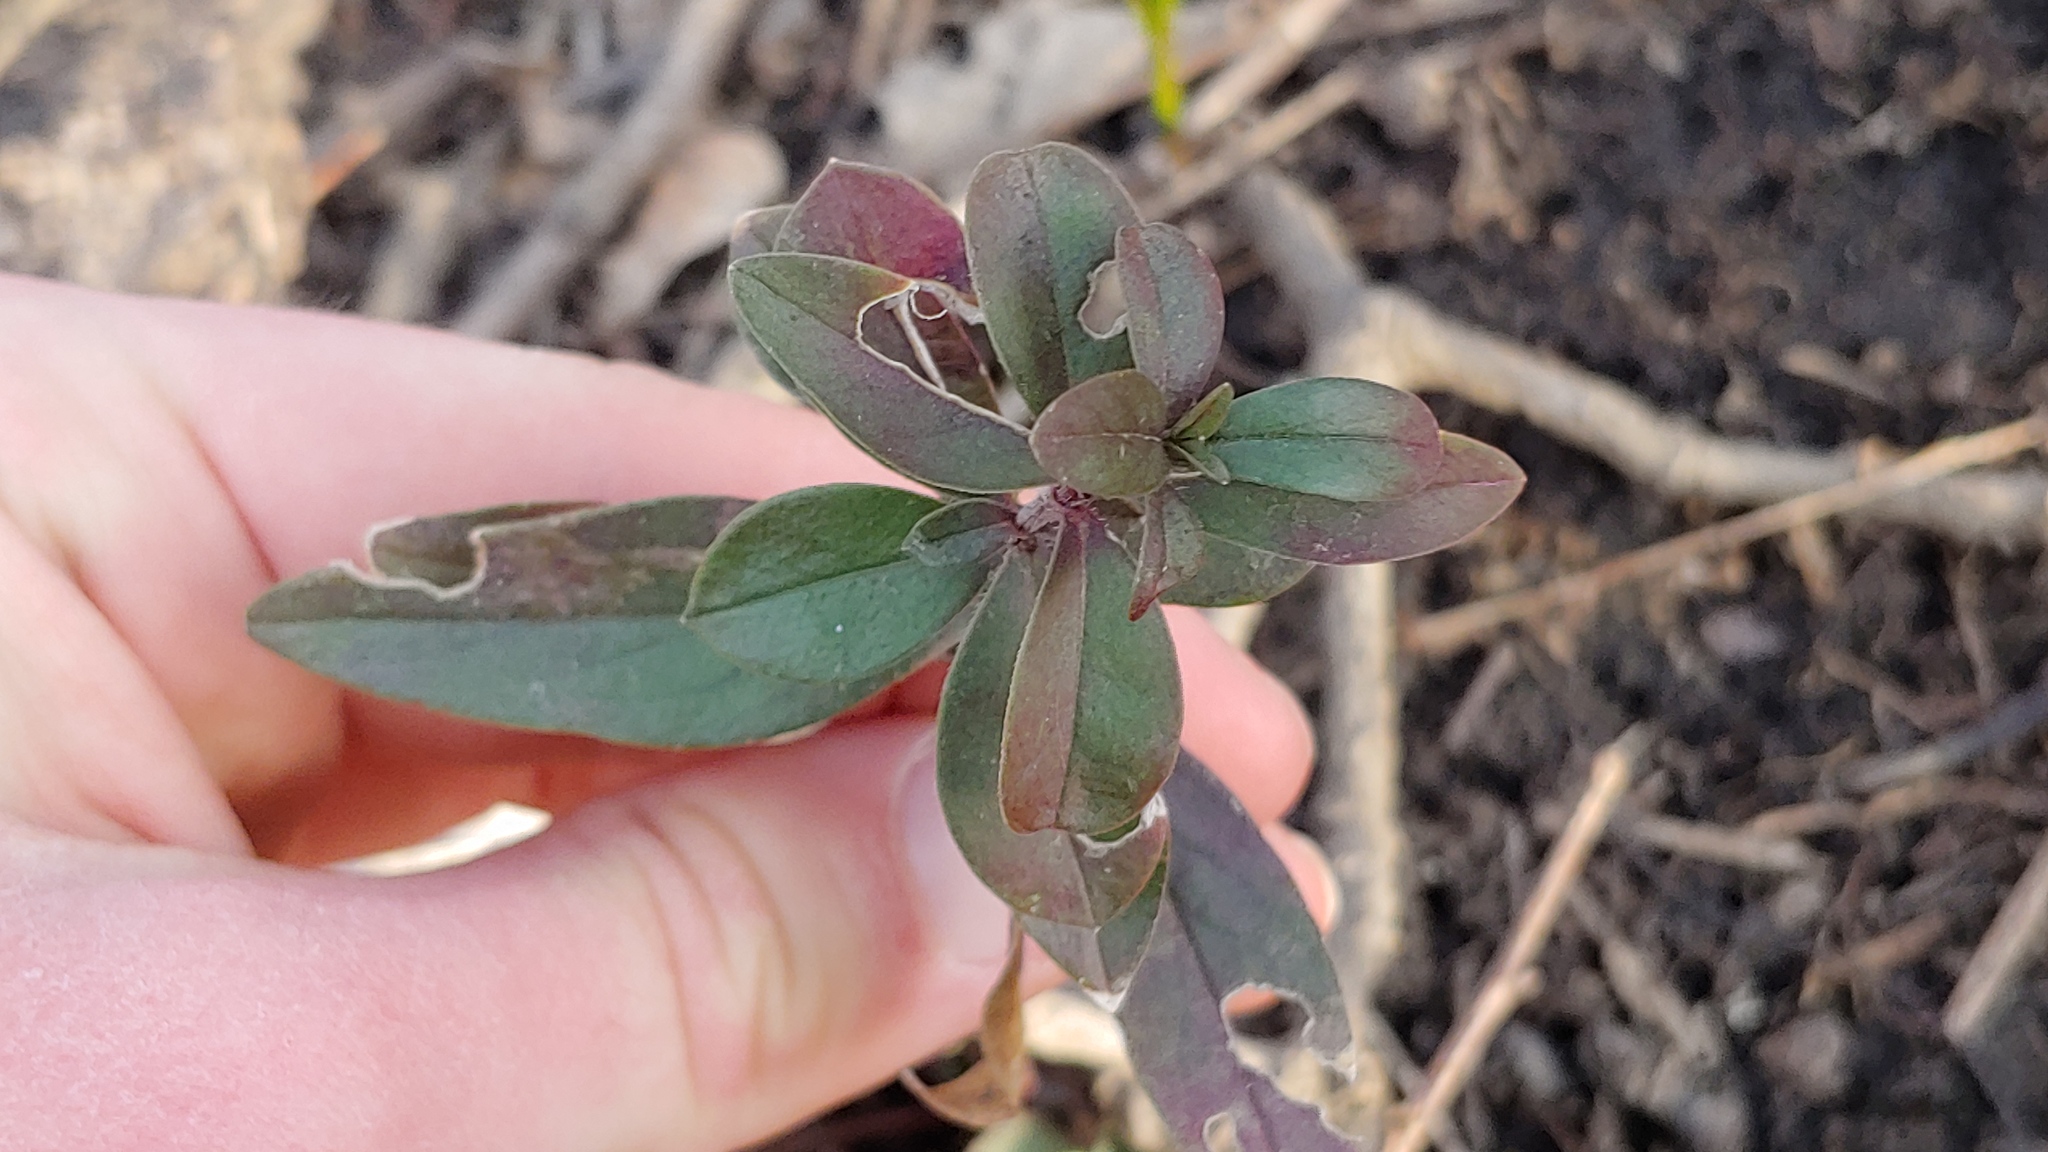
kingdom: Plantae
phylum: Tracheophyta
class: Magnoliopsida
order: Ericales
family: Polemoniaceae
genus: Phlox
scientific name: Phlox divaricata
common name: Blue phlox
